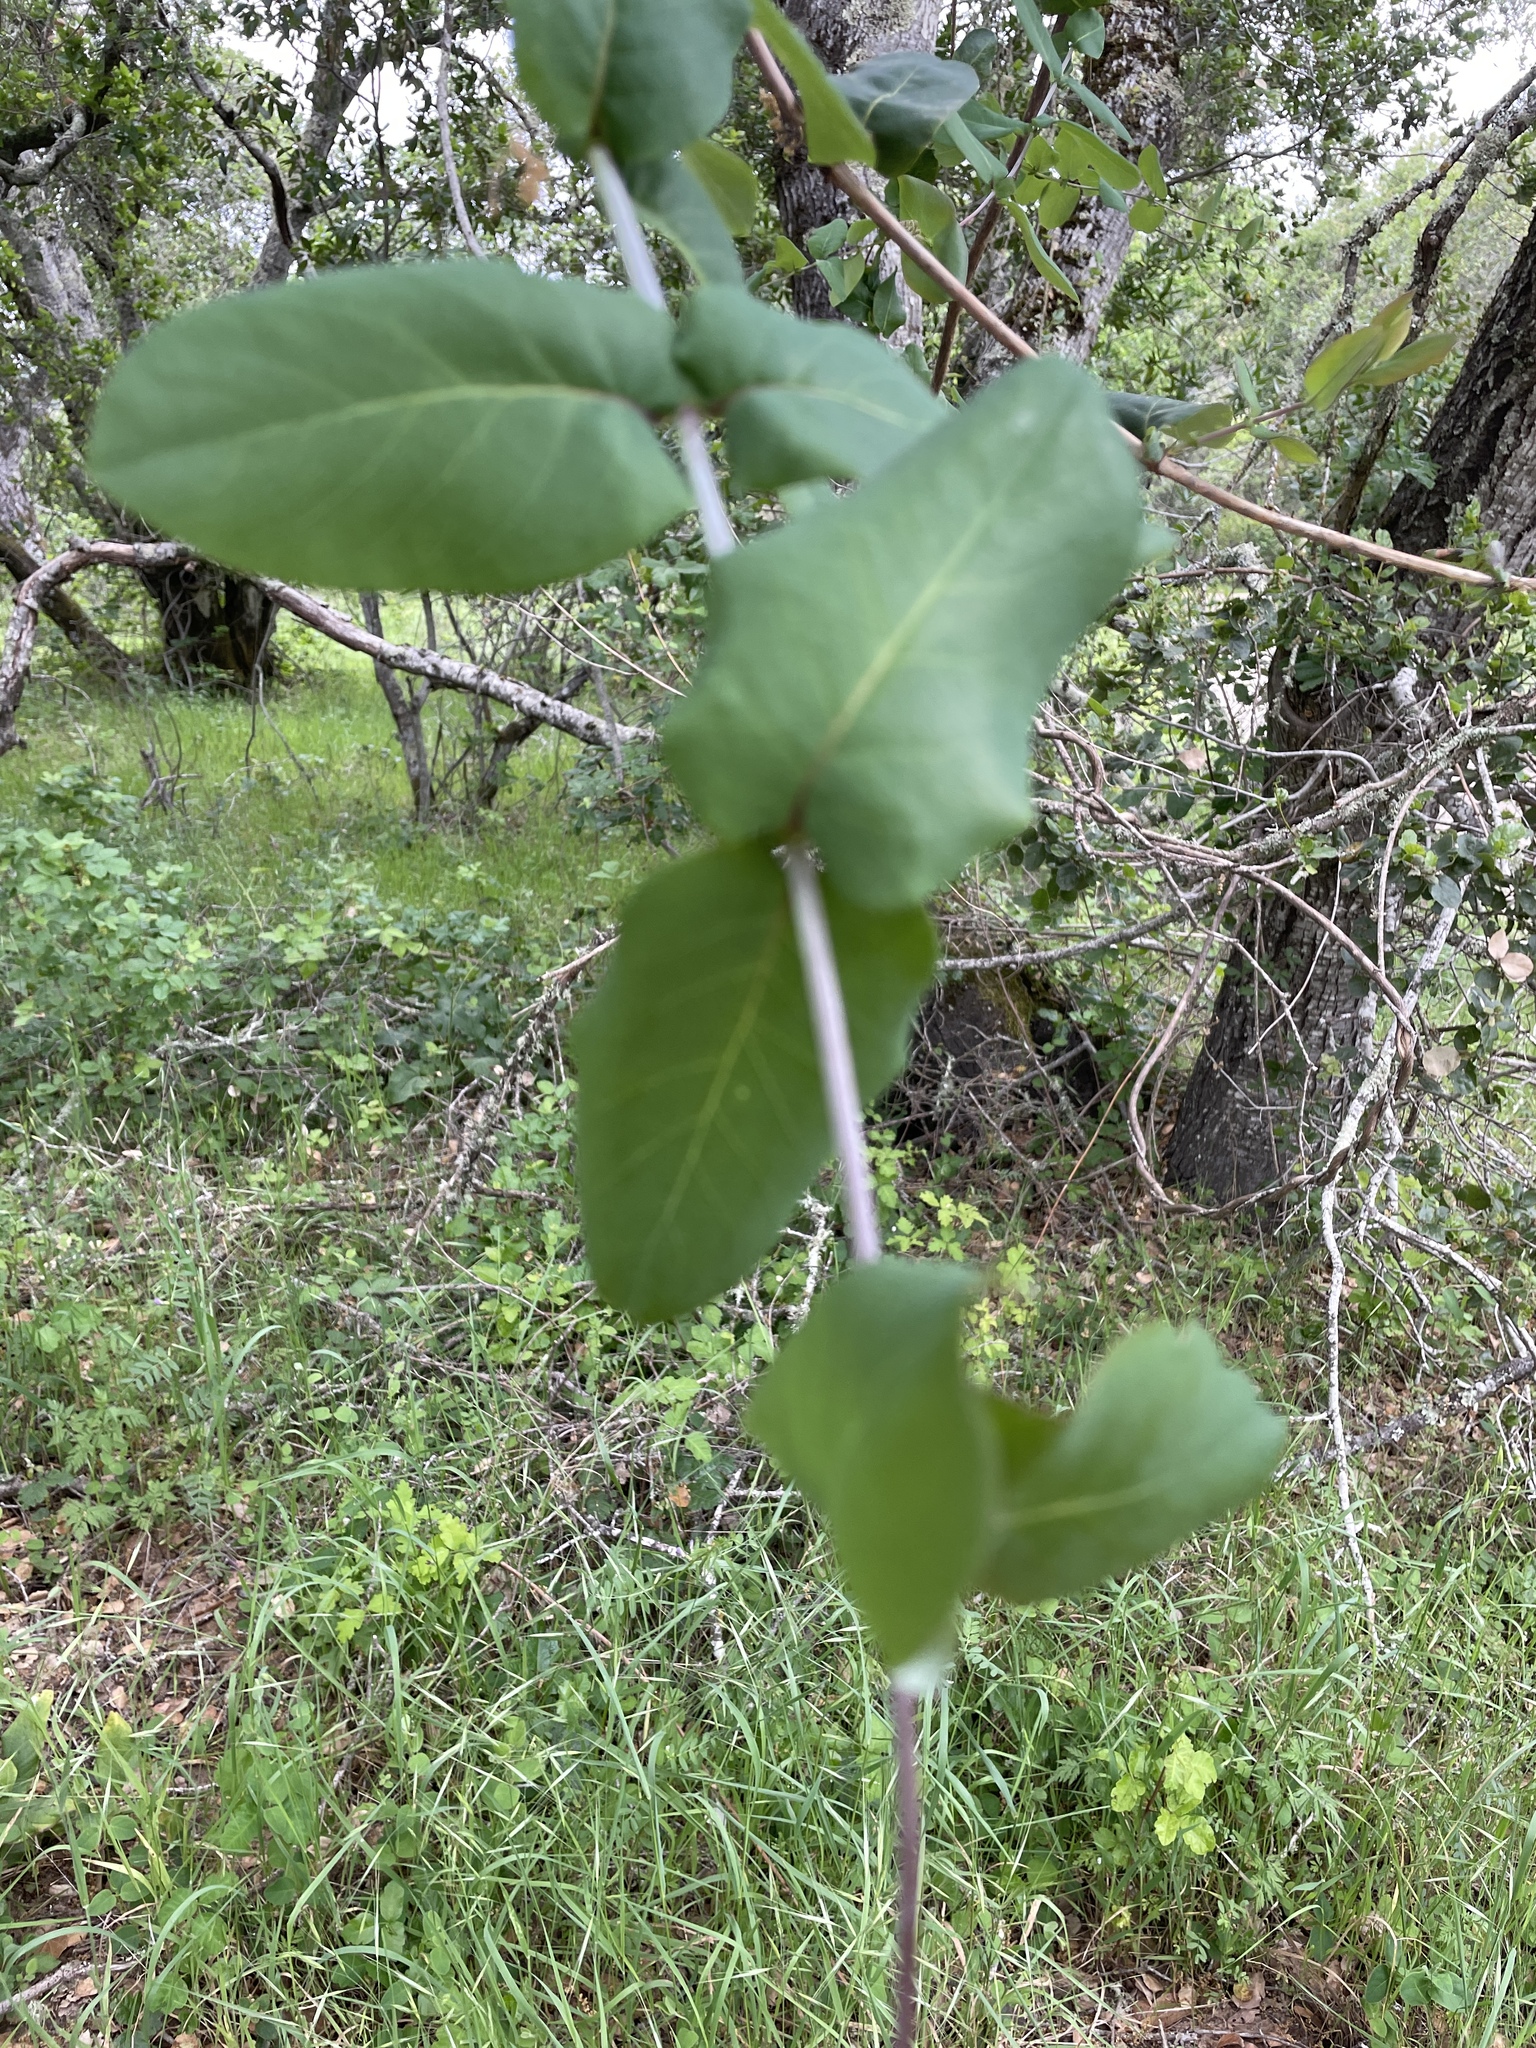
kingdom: Plantae
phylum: Tracheophyta
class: Magnoliopsida
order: Dipsacales
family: Caprifoliaceae
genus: Lonicera
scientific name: Lonicera hispidula
